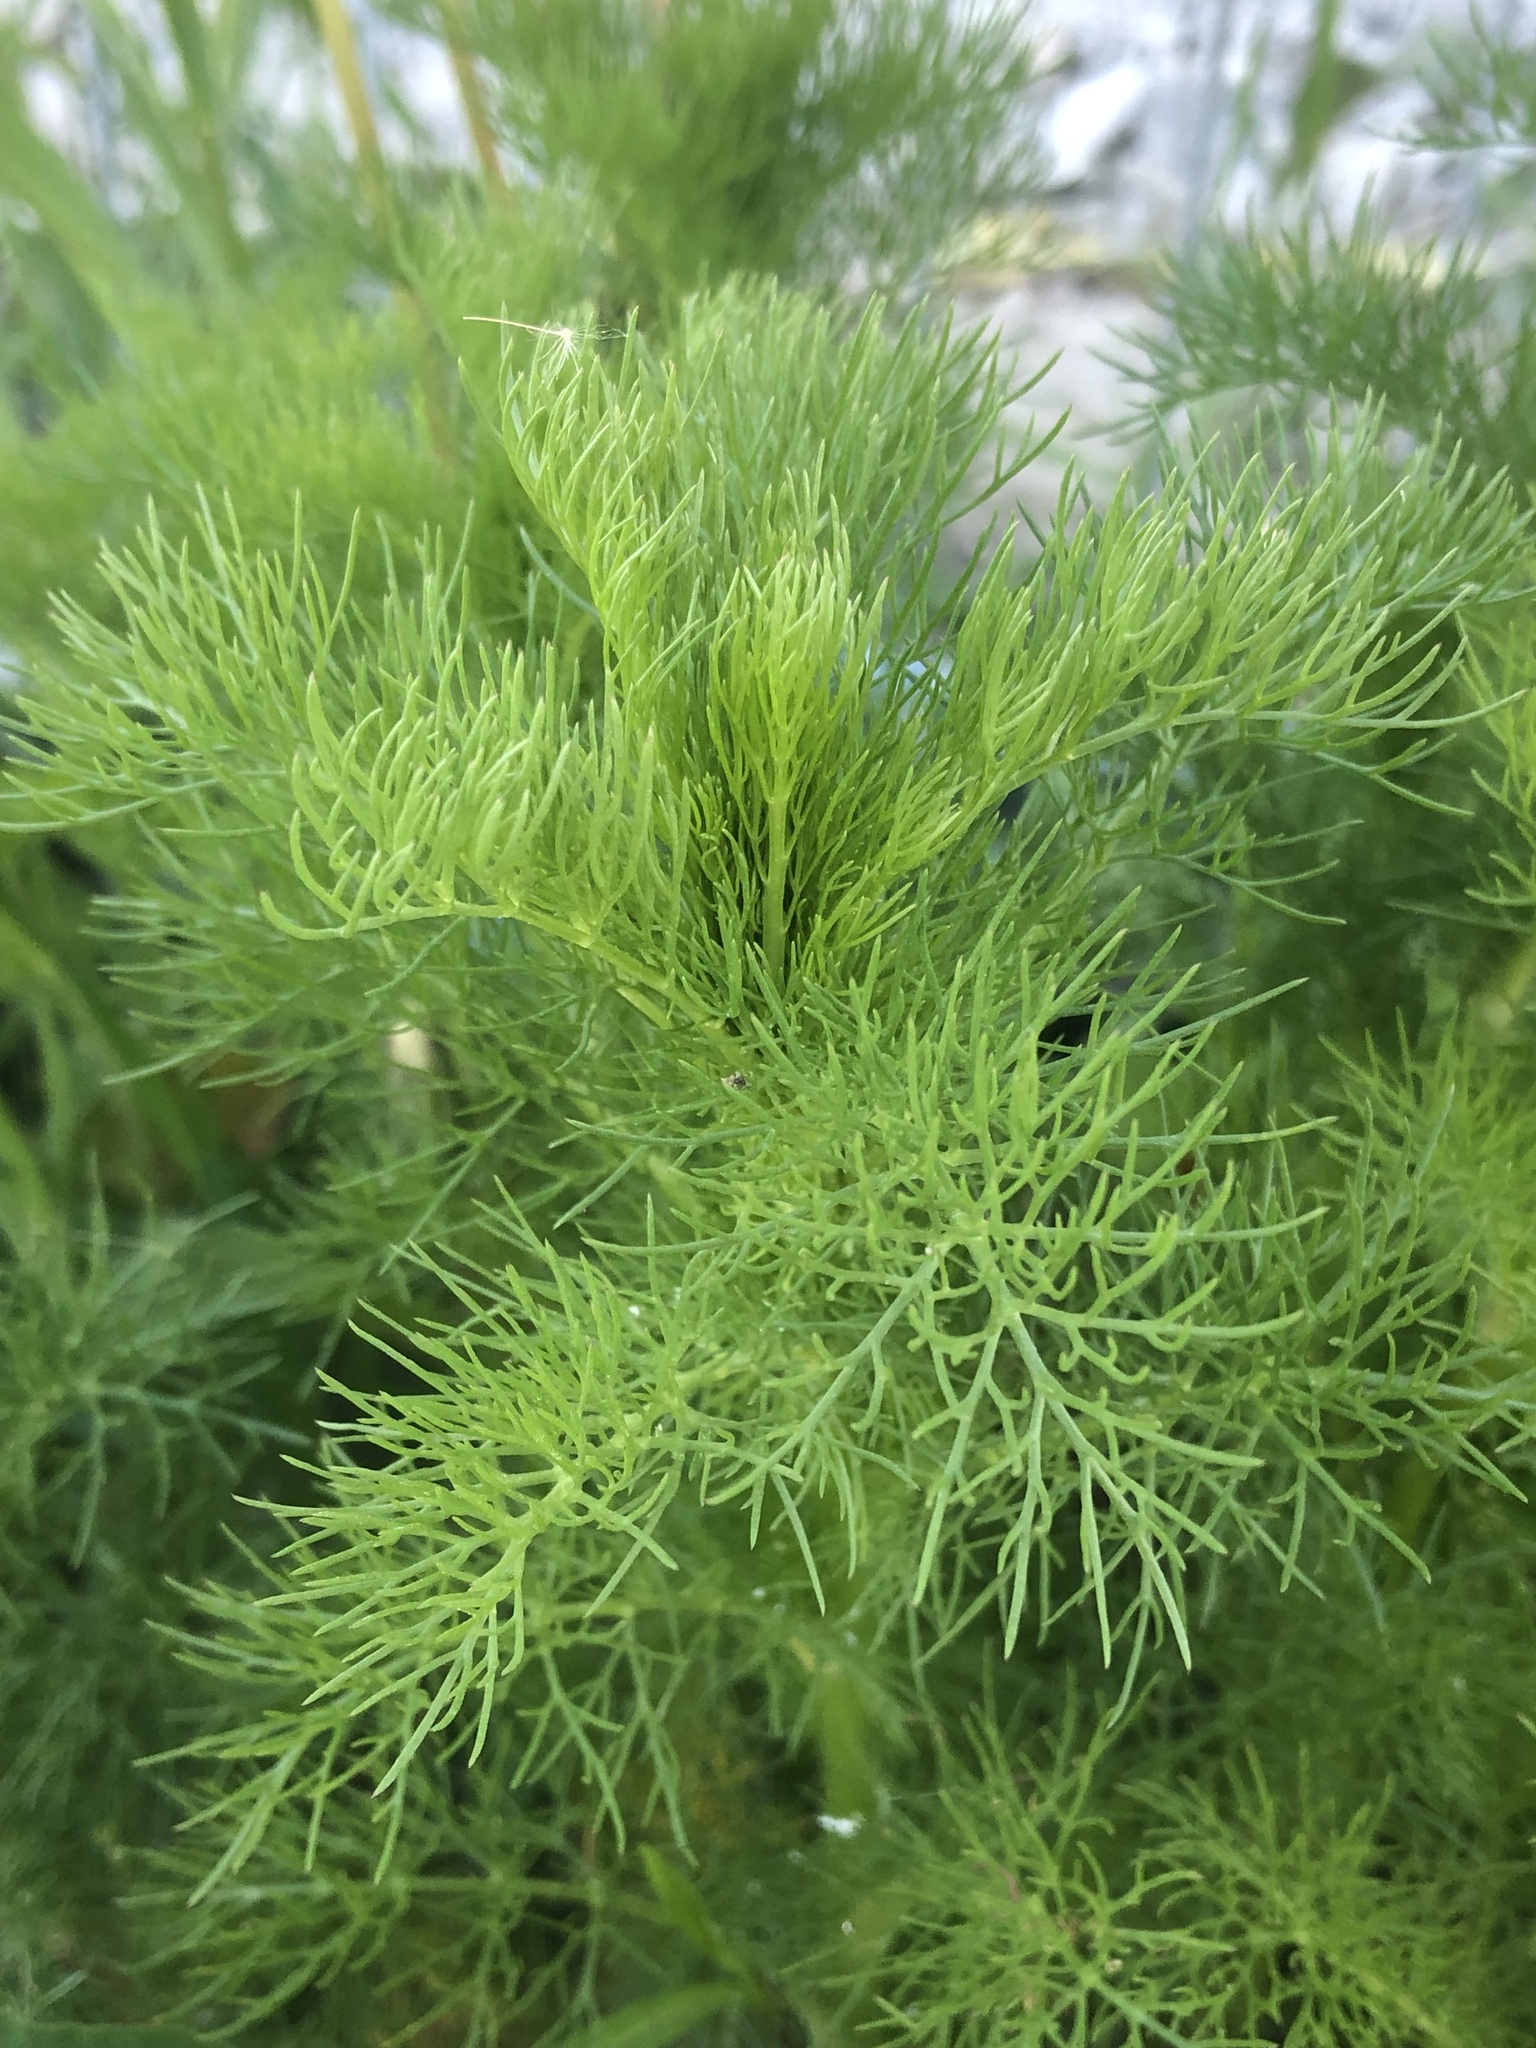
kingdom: Plantae
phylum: Tracheophyta
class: Magnoliopsida
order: Asterales
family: Asteraceae
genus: Tripleurospermum
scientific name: Tripleurospermum inodorum
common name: Scentless mayweed
